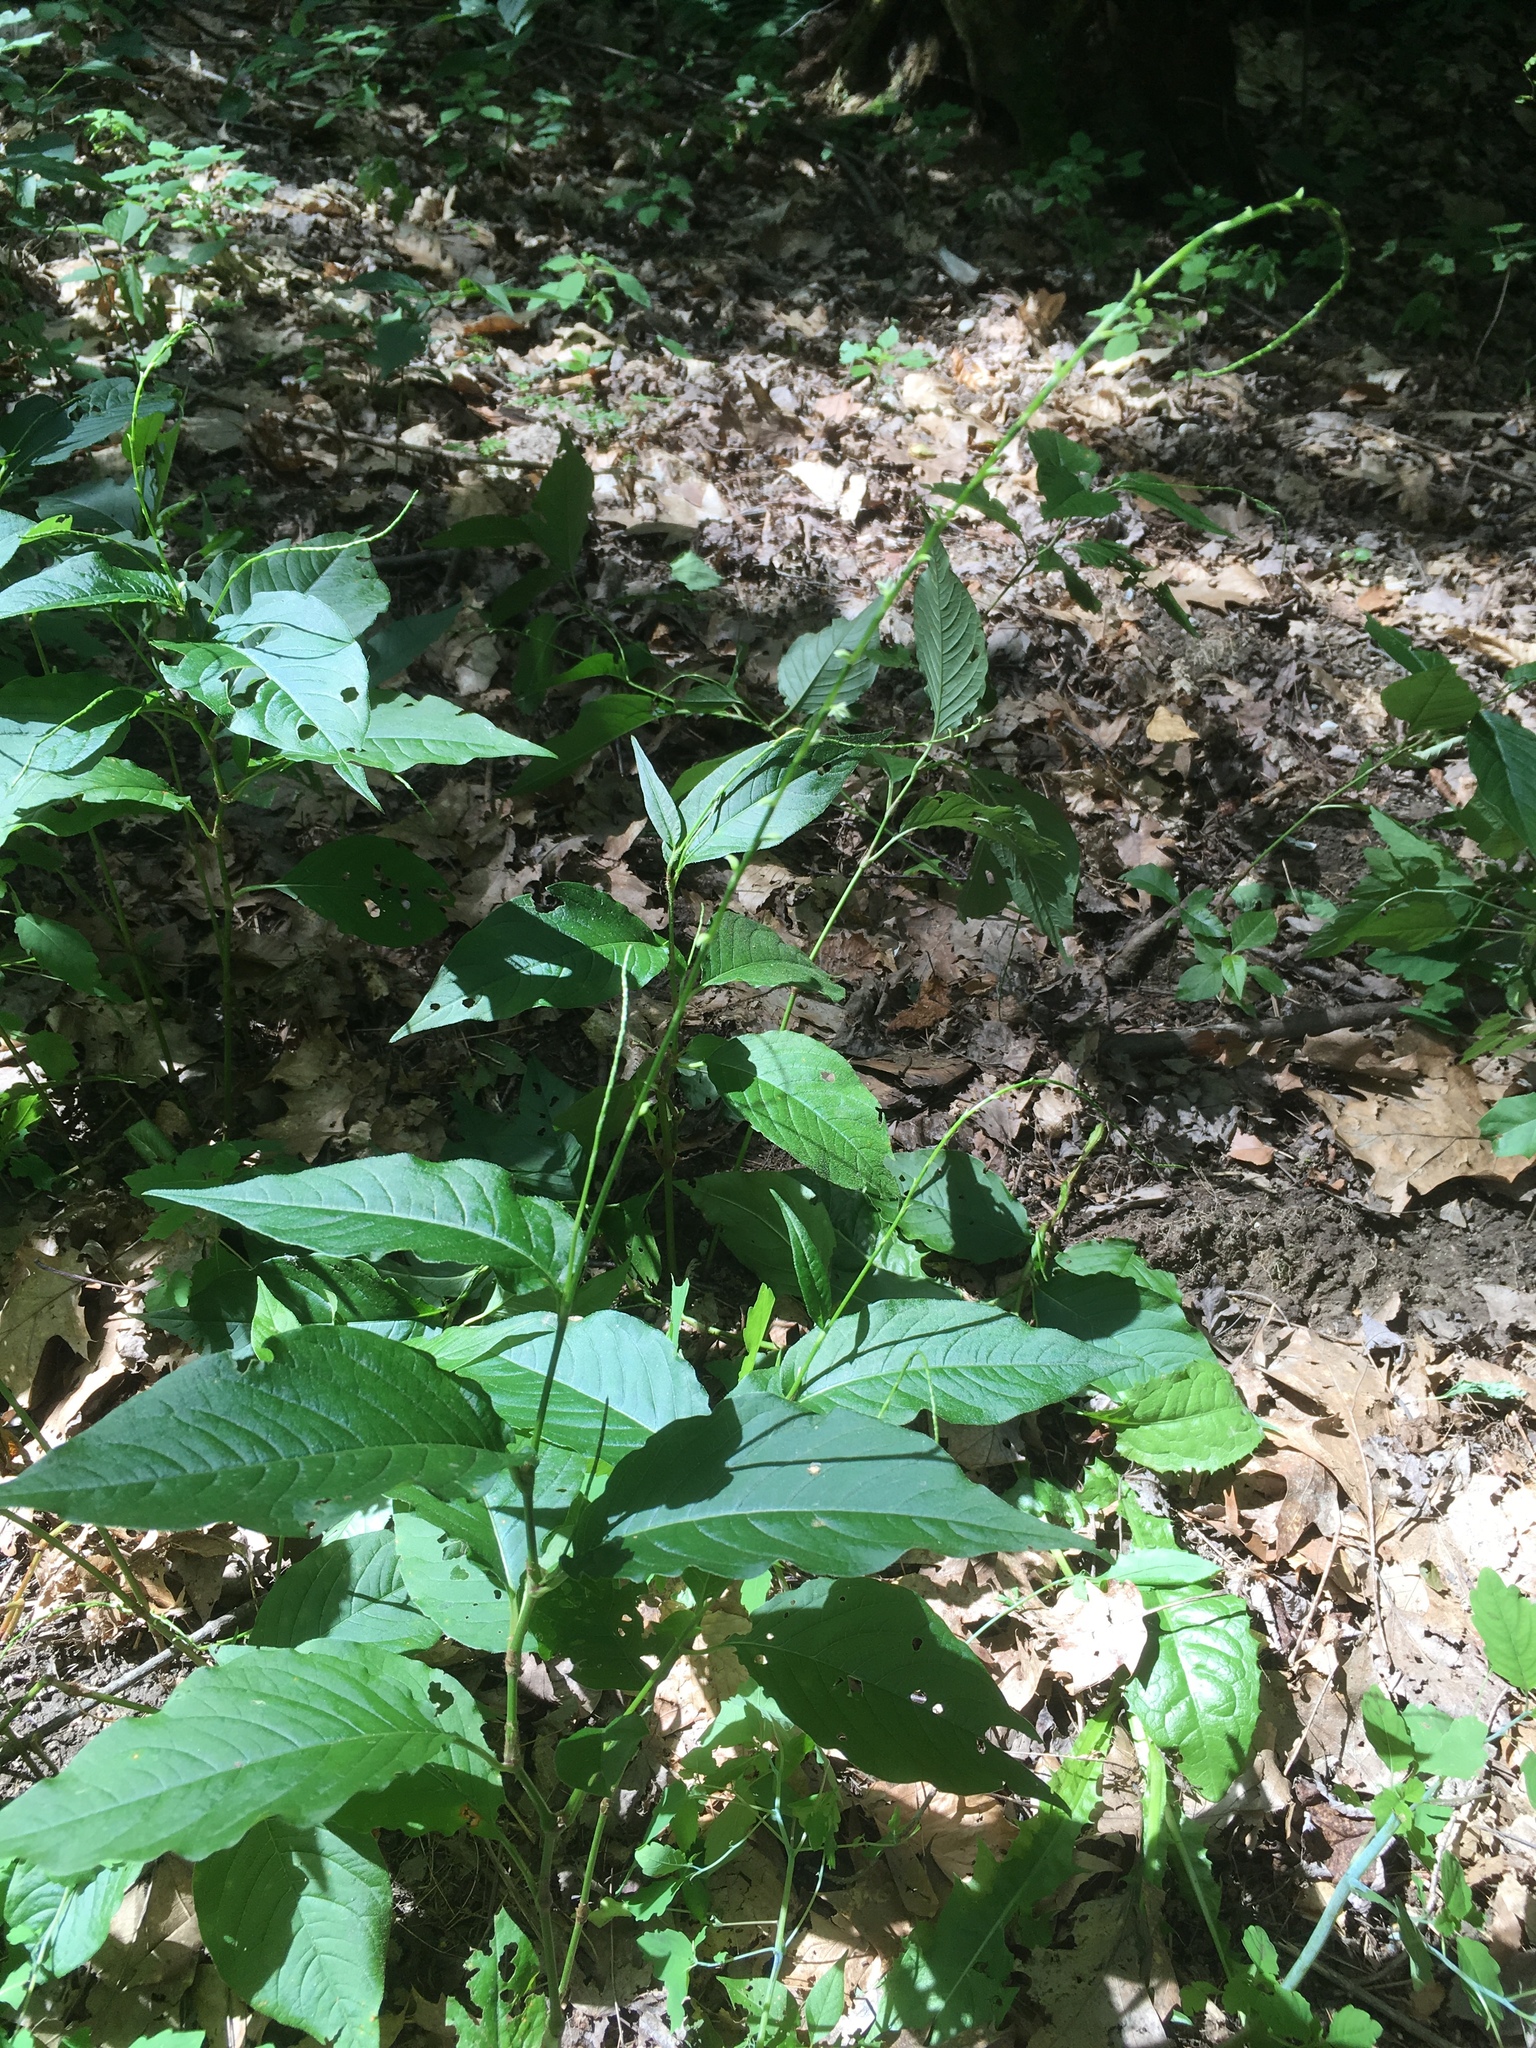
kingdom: Plantae
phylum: Tracheophyta
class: Magnoliopsida
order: Caryophyllales
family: Polygonaceae
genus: Persicaria
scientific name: Persicaria virginiana
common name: Jumpseed
